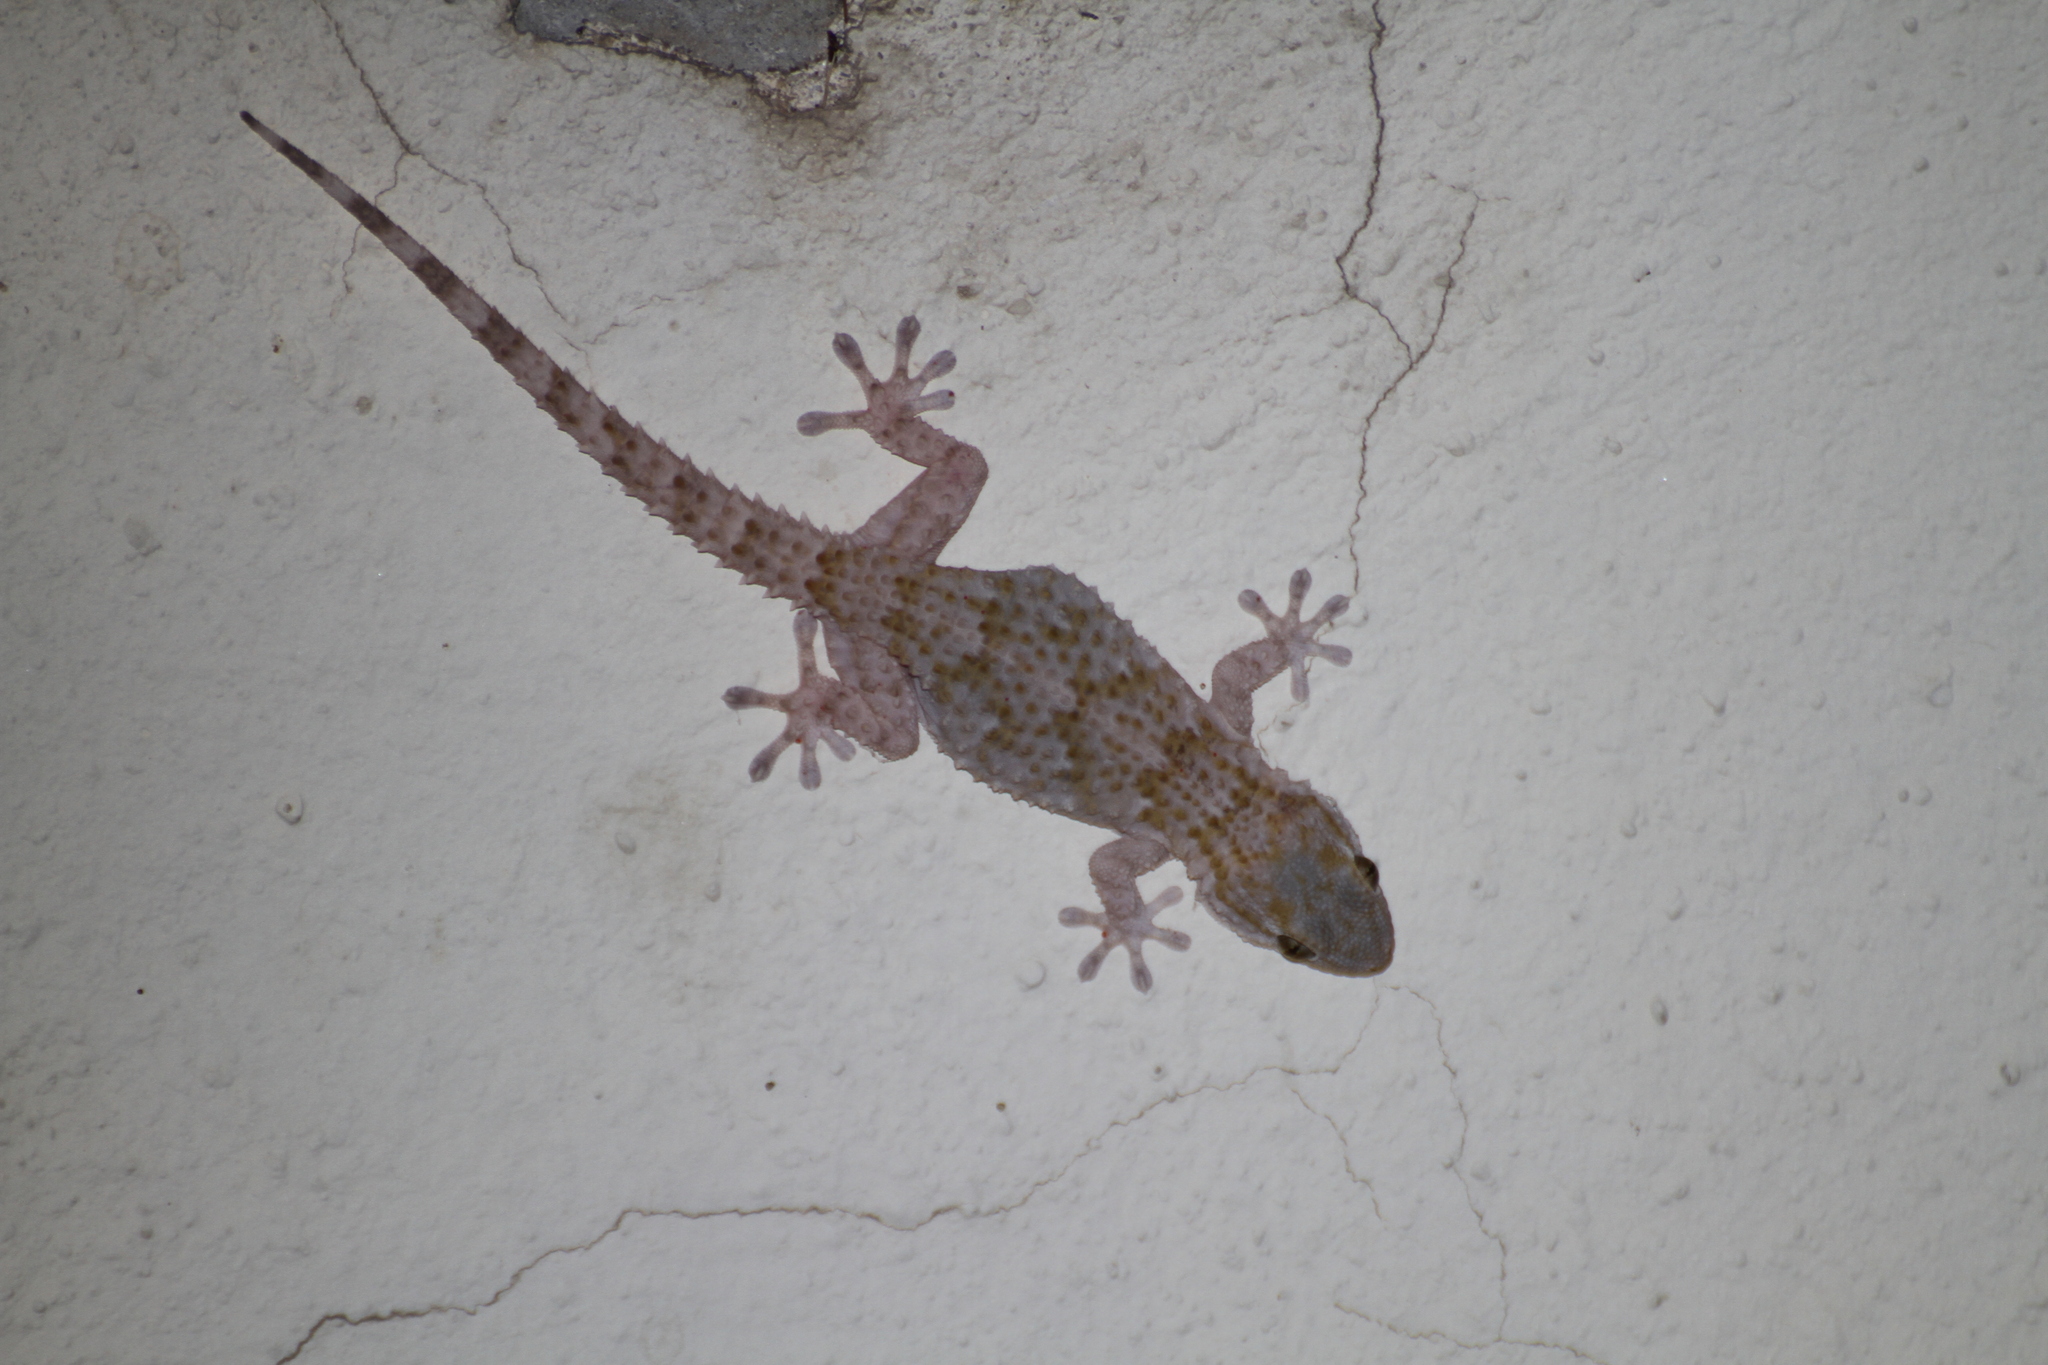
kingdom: Animalia
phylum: Chordata
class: Squamata
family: Phyllodactylidae
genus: Tarentola
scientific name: Tarentola mauritanica
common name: Moorish gecko
